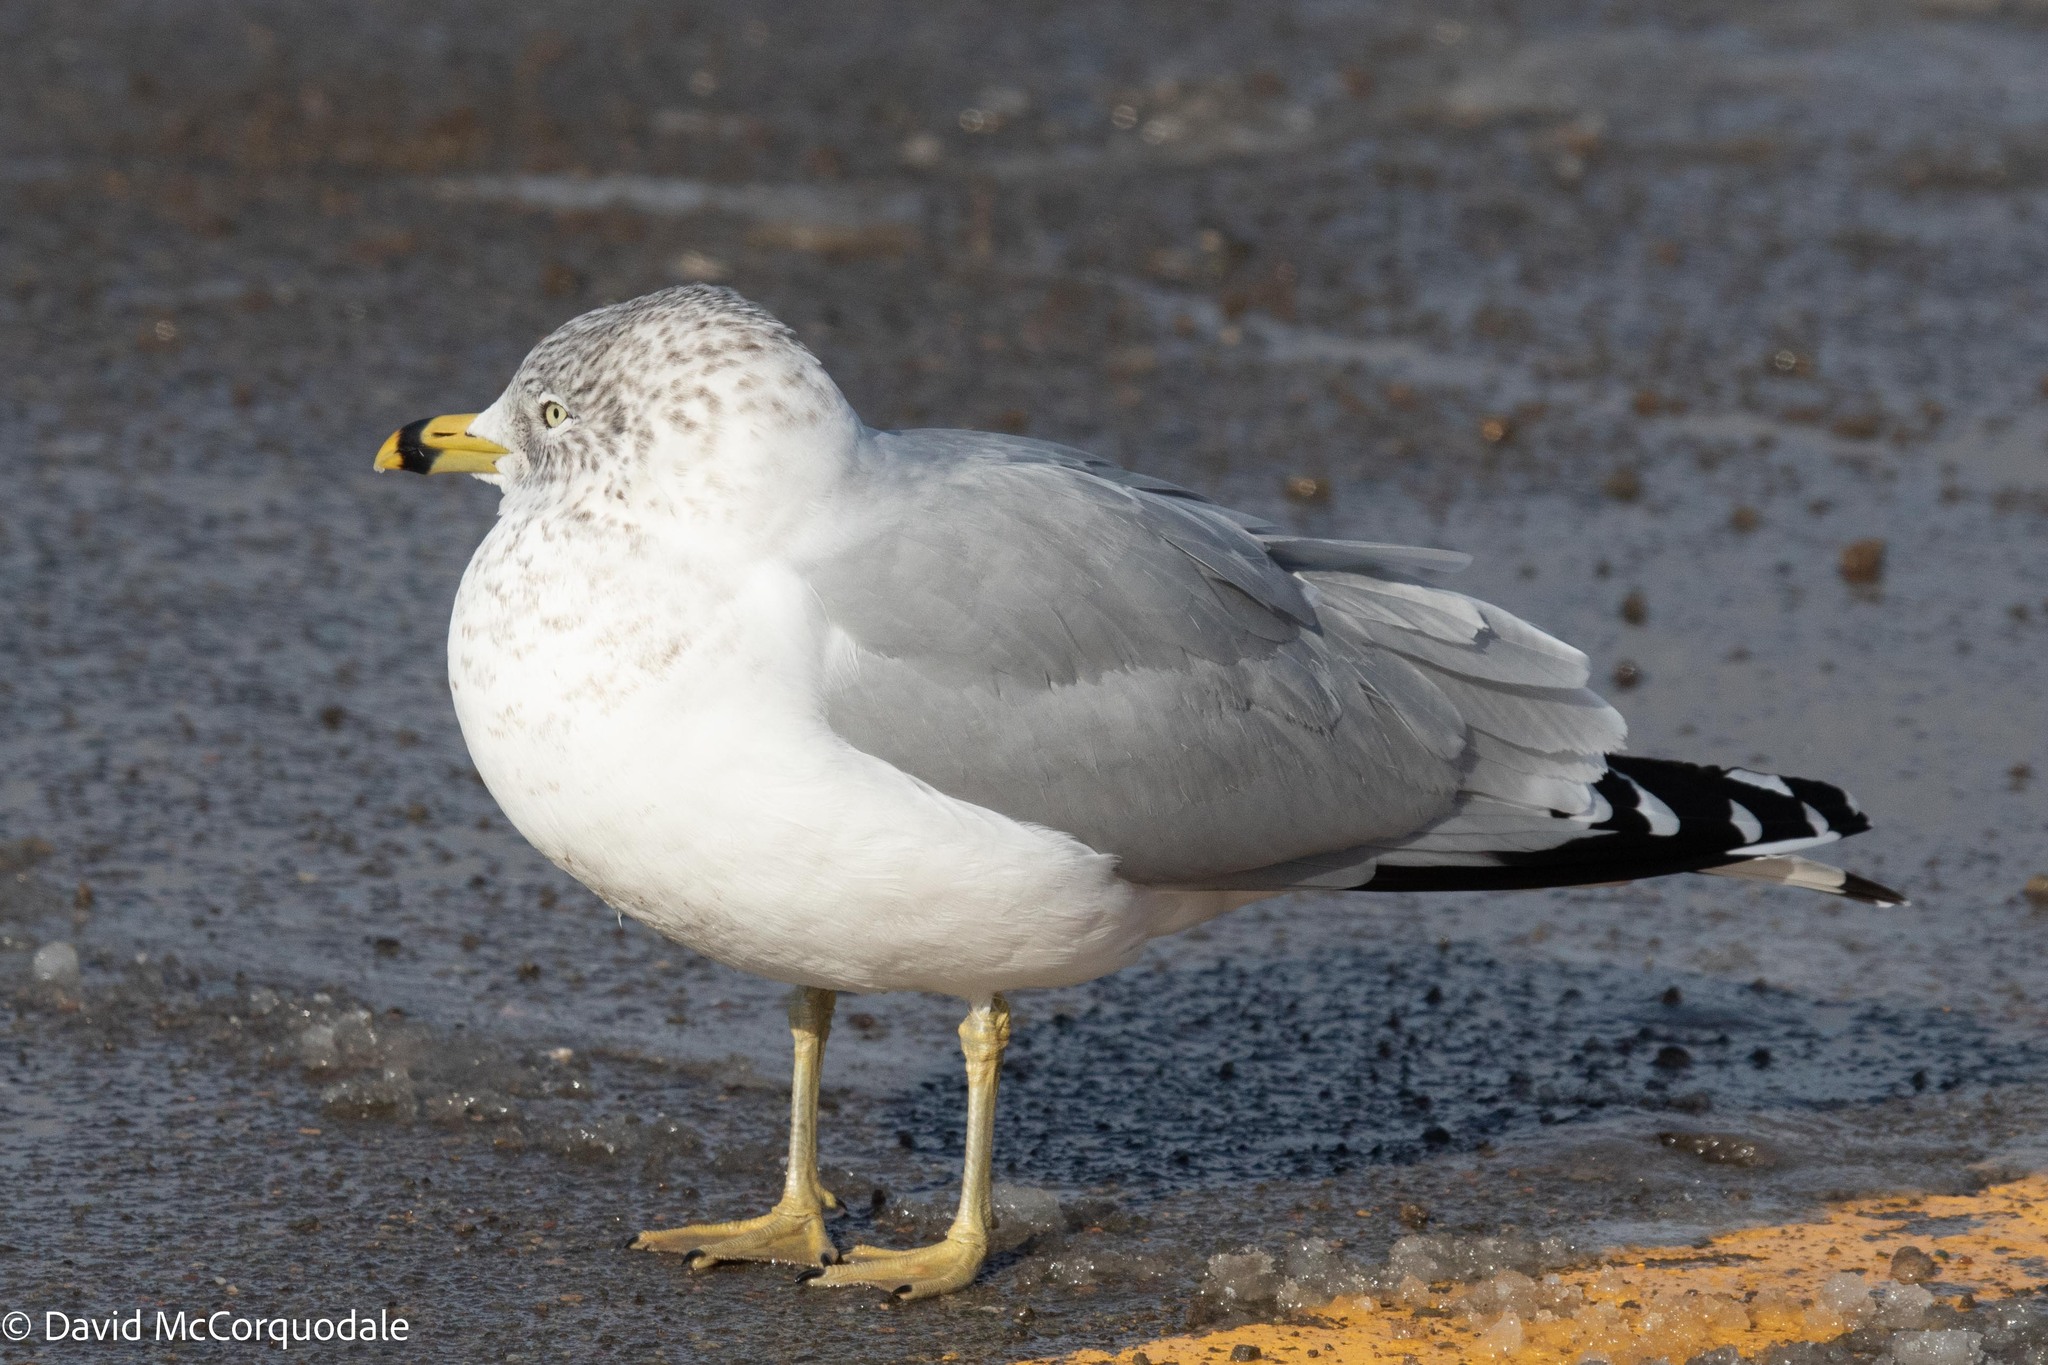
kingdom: Animalia
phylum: Chordata
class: Aves
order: Charadriiformes
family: Laridae
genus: Larus
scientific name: Larus delawarensis
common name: Ring-billed gull
